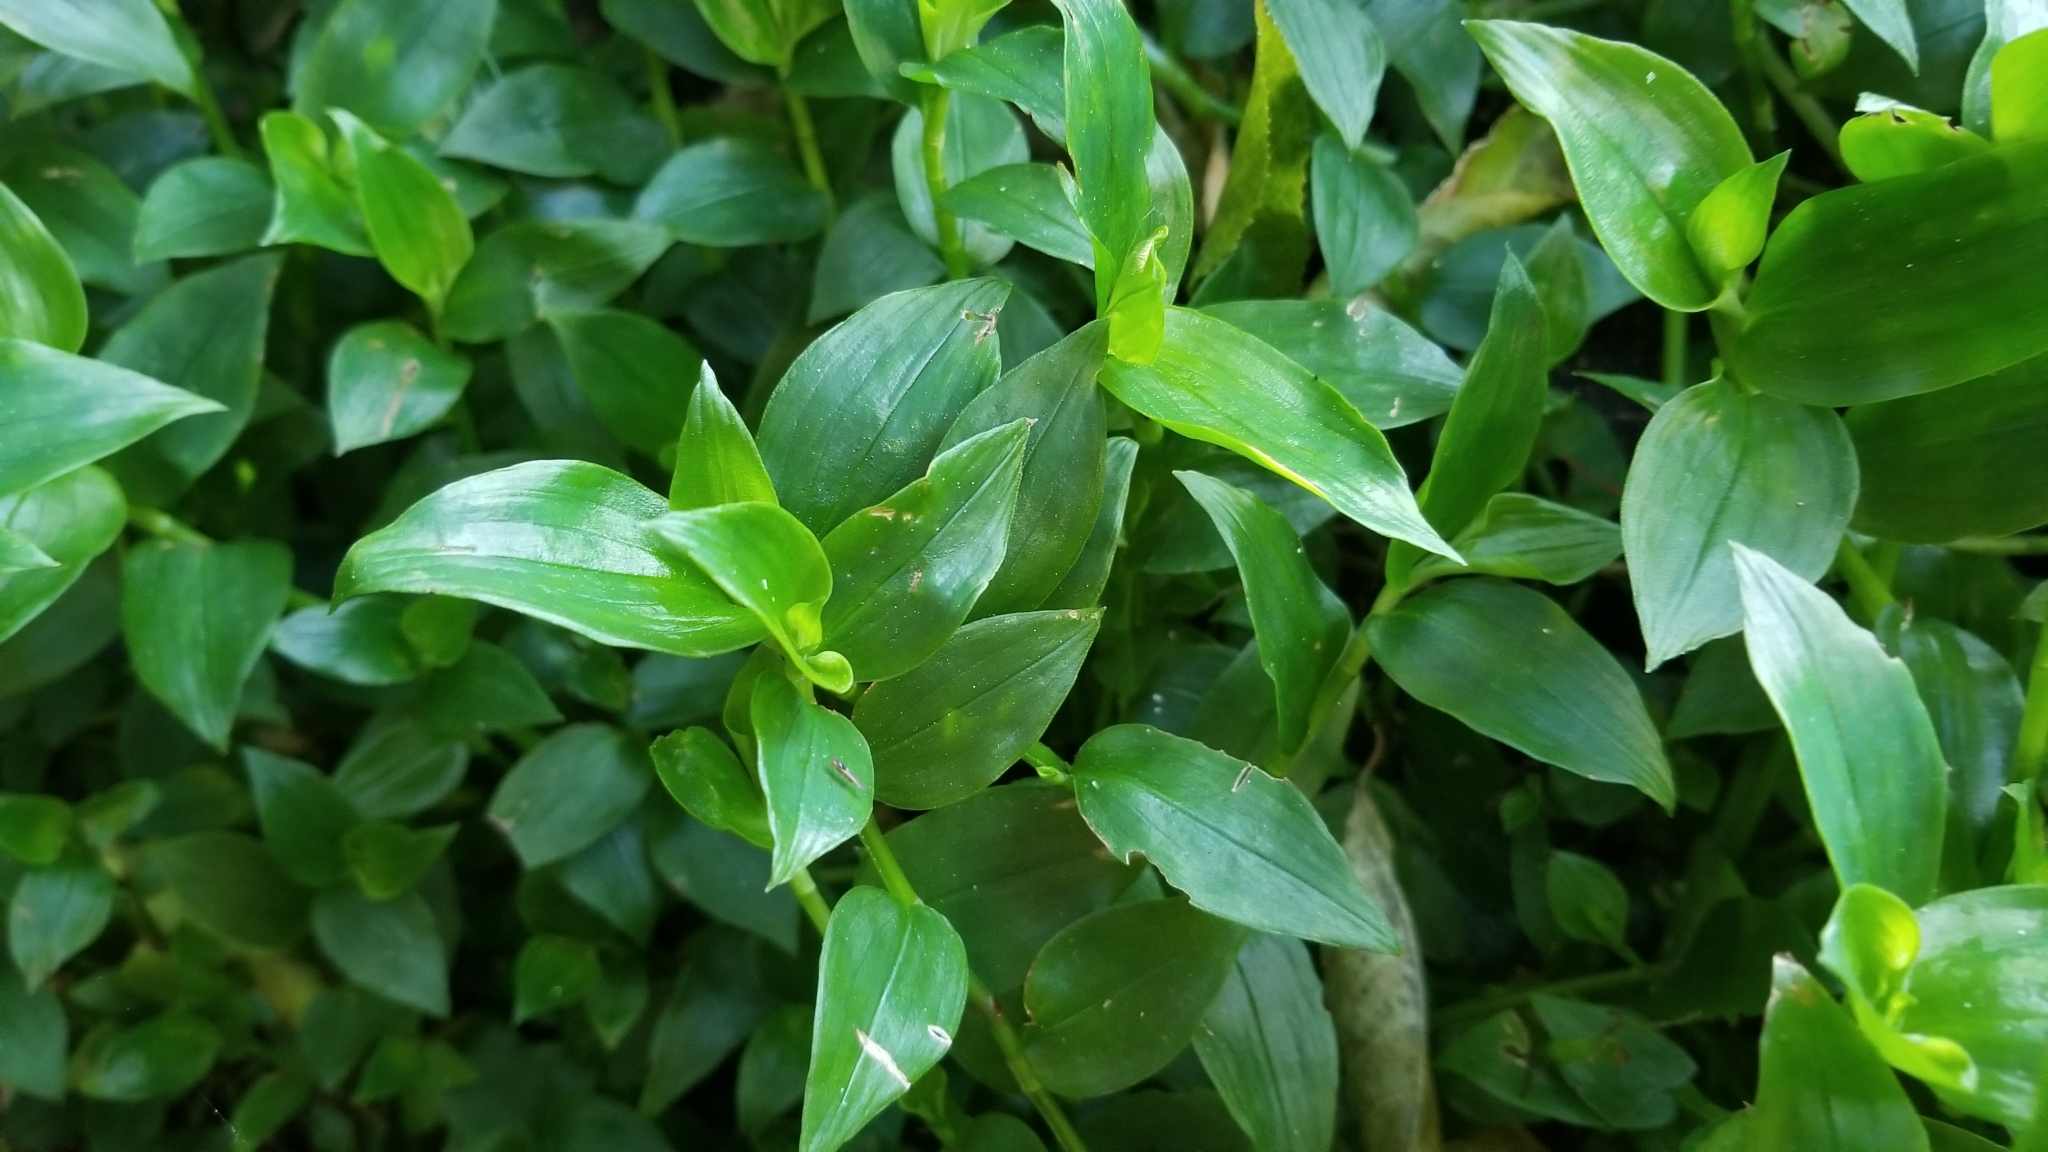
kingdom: Plantae
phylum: Tracheophyta
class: Liliopsida
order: Commelinales
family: Commelinaceae
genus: Tradescantia
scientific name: Tradescantia fluminensis
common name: Wandering-jew
